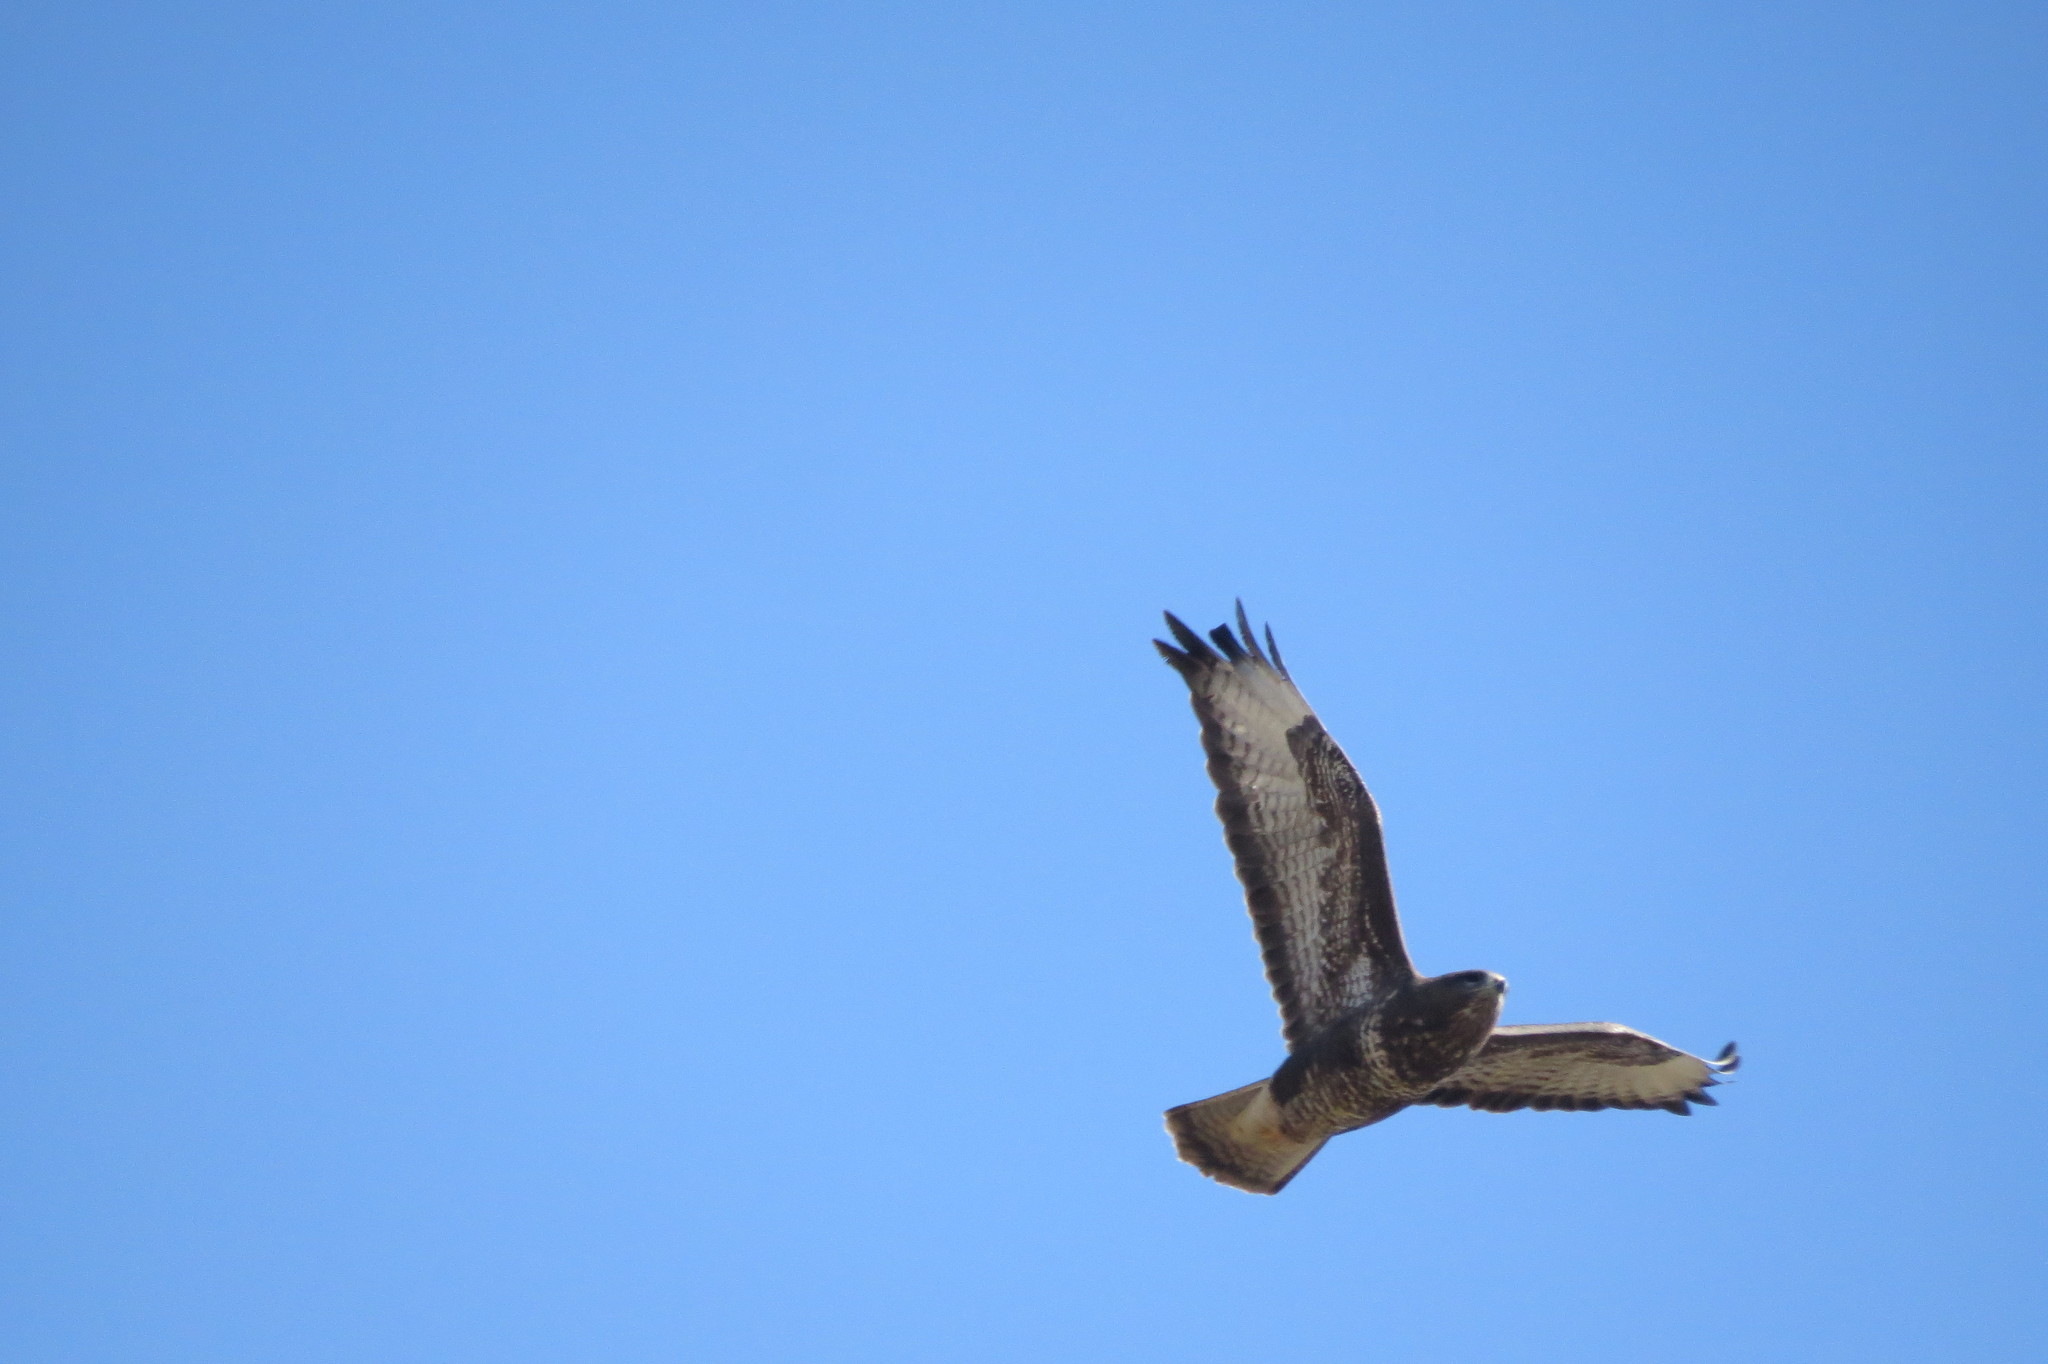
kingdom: Animalia
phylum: Chordata
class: Aves
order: Accipitriformes
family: Accipitridae
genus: Buteo
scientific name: Buteo buteo
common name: Common buzzard
